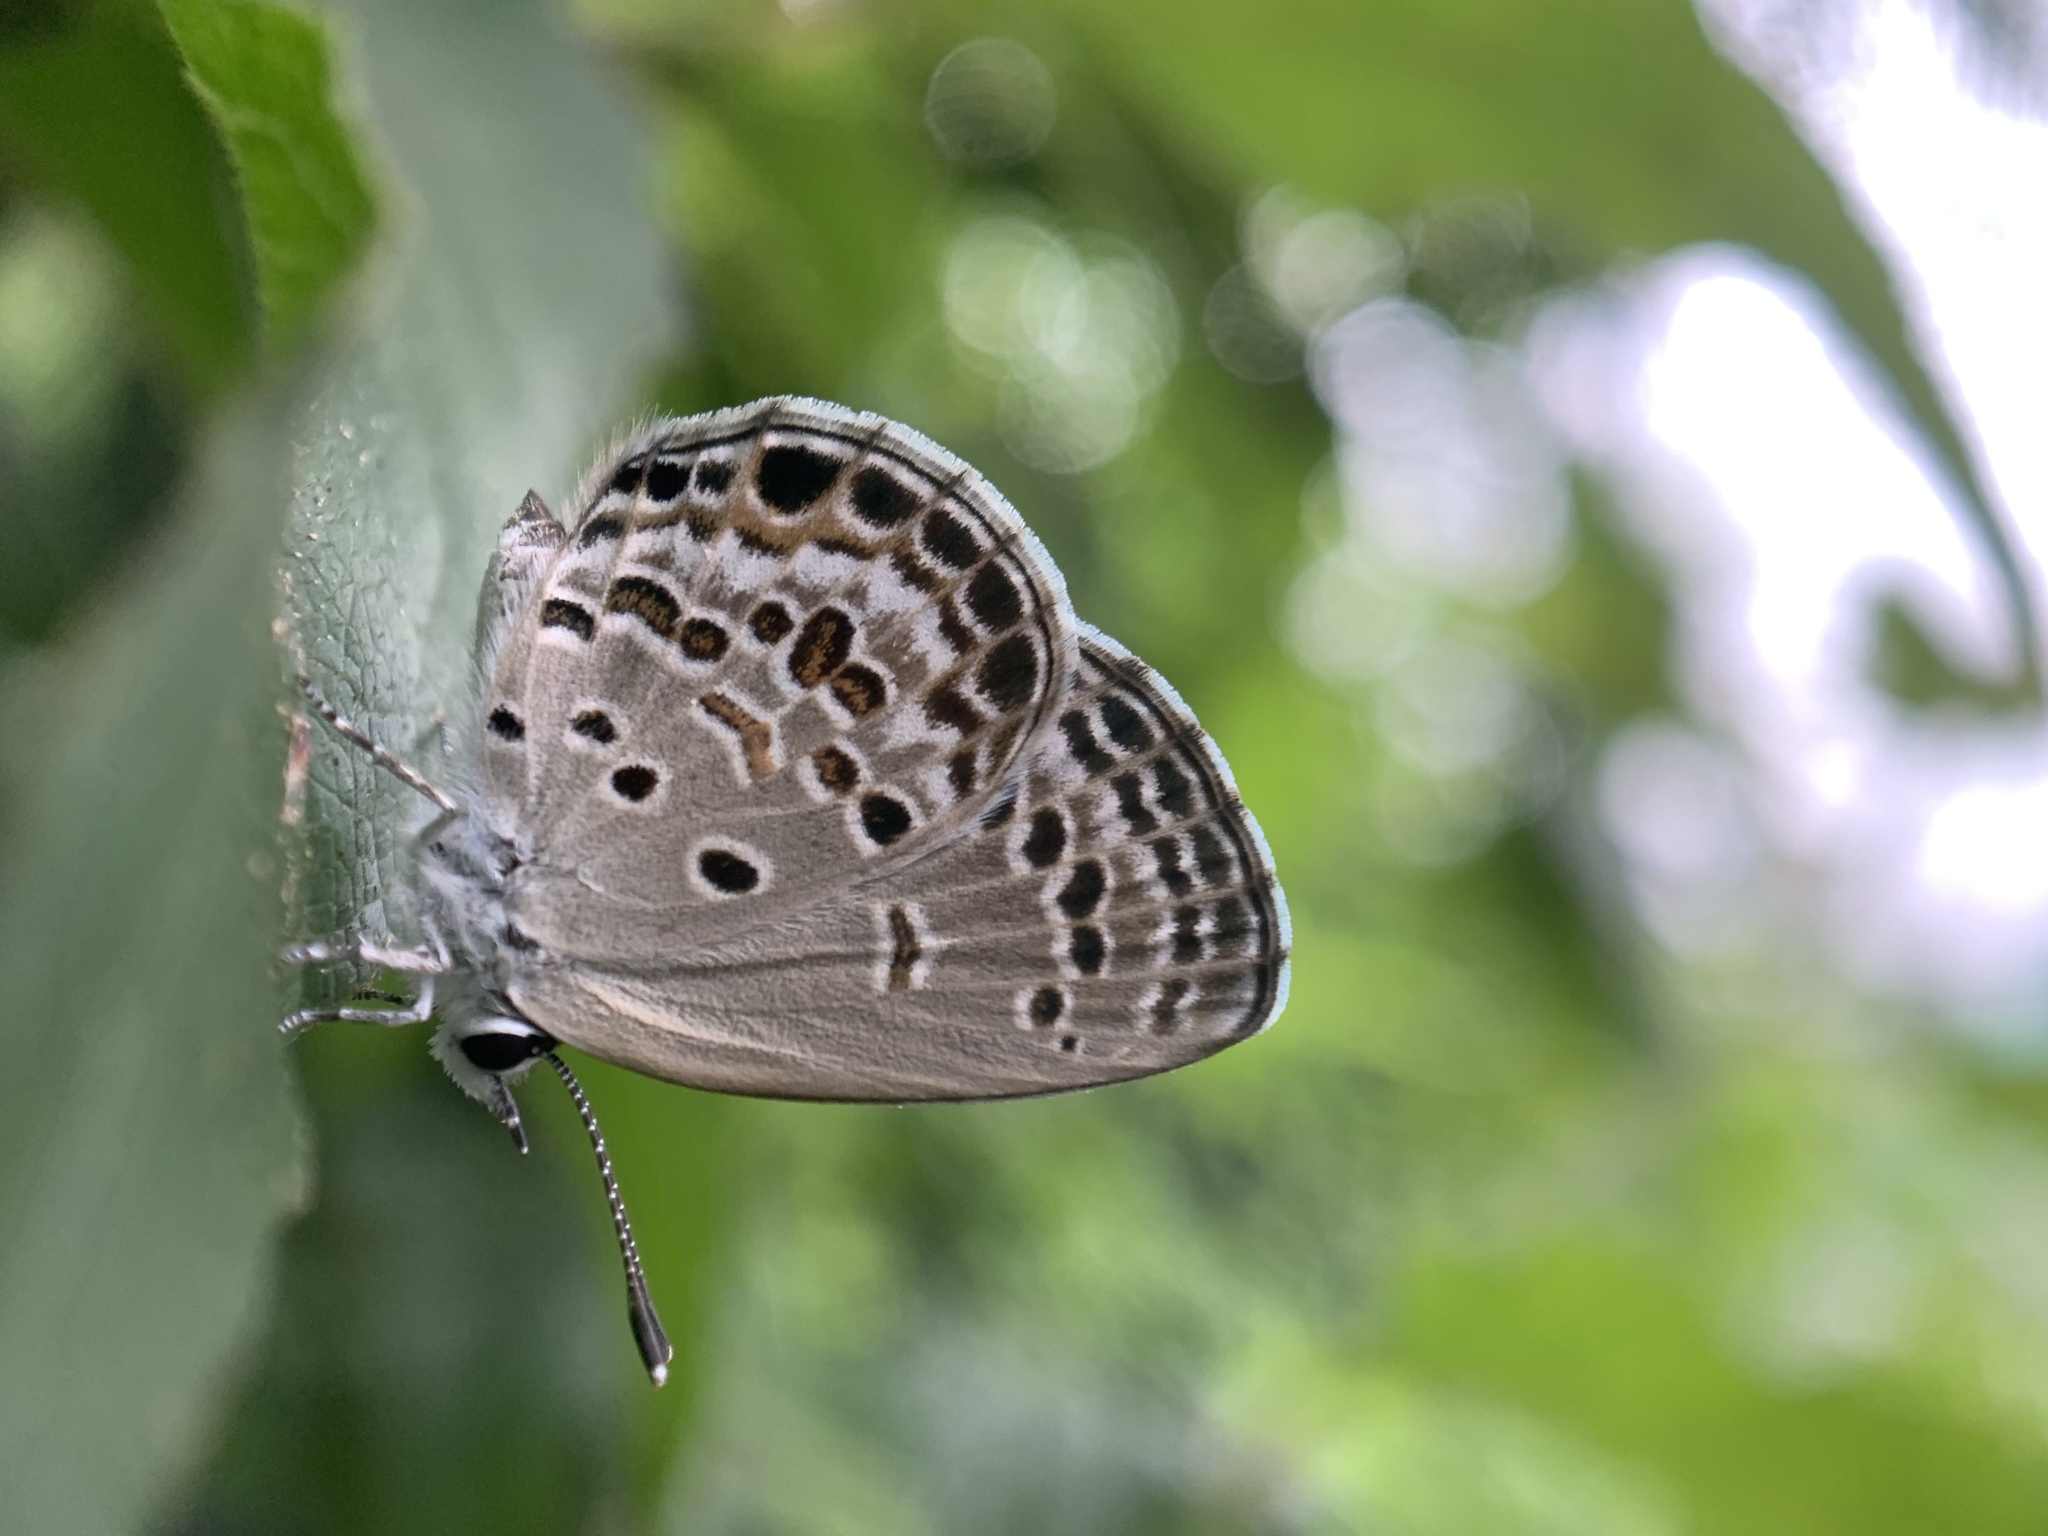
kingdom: Animalia
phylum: Arthropoda
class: Insecta
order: Lepidoptera
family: Lycaenidae
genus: Chilades
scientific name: Chilades laius
